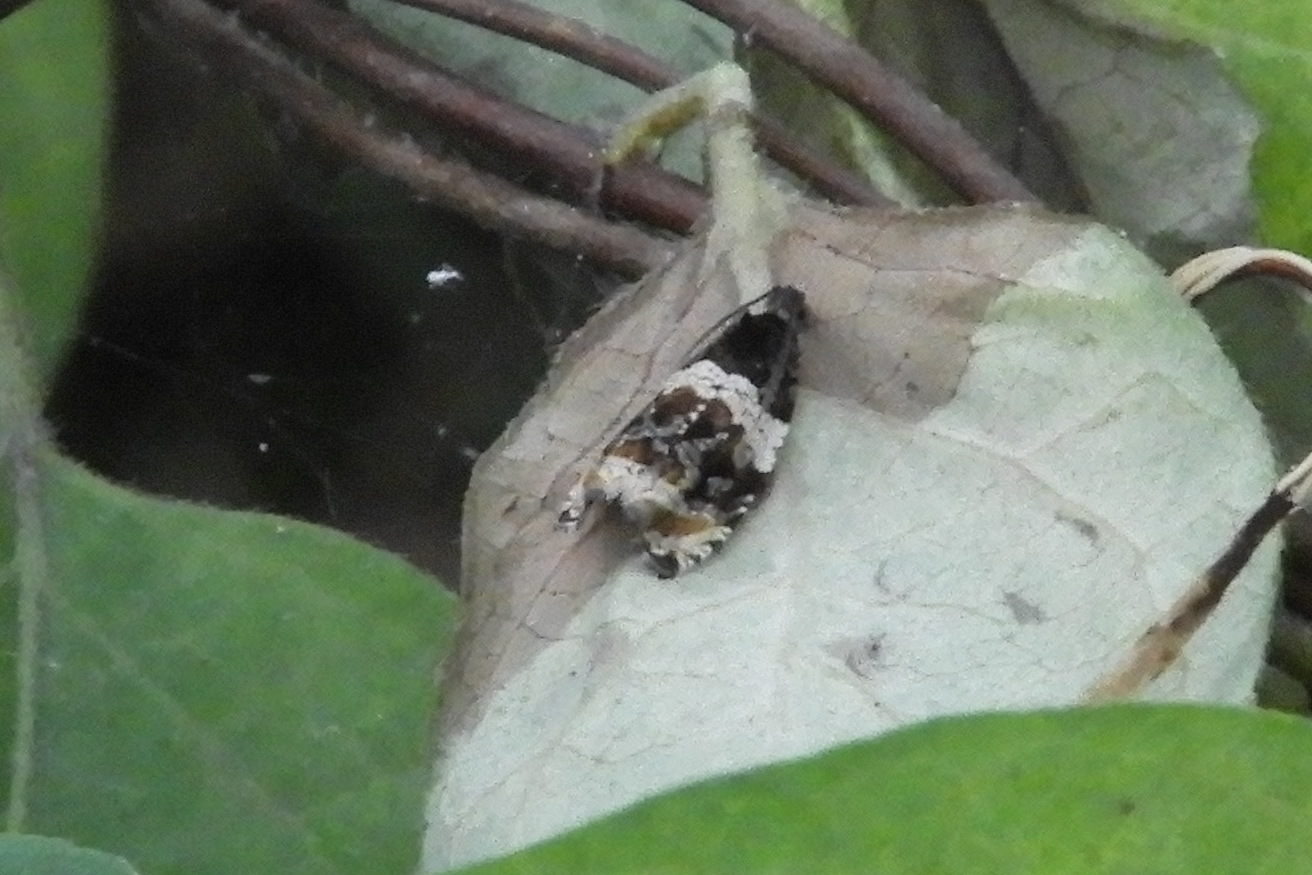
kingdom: Animalia
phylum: Arthropoda
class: Insecta
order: Lepidoptera
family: Tortricidae
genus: Olethreutes
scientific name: Olethreutes fasciatana
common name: Banded olethreutes moth
